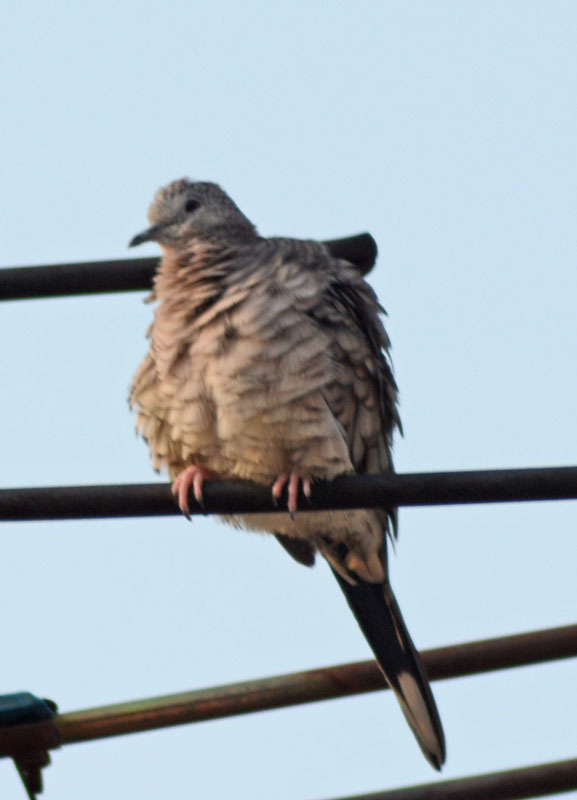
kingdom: Animalia
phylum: Chordata
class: Aves
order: Columbiformes
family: Columbidae
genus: Columbina
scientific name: Columbina inca
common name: Inca dove
